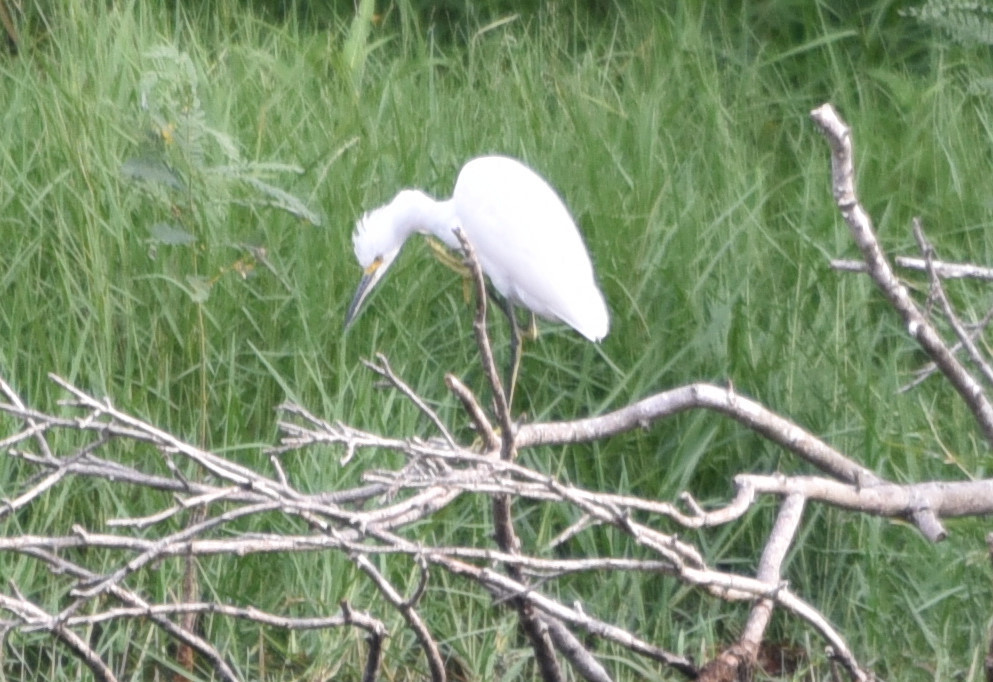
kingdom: Animalia
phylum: Chordata
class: Aves
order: Pelecaniformes
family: Ardeidae
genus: Egretta
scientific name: Egretta thula
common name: Snowy egret
